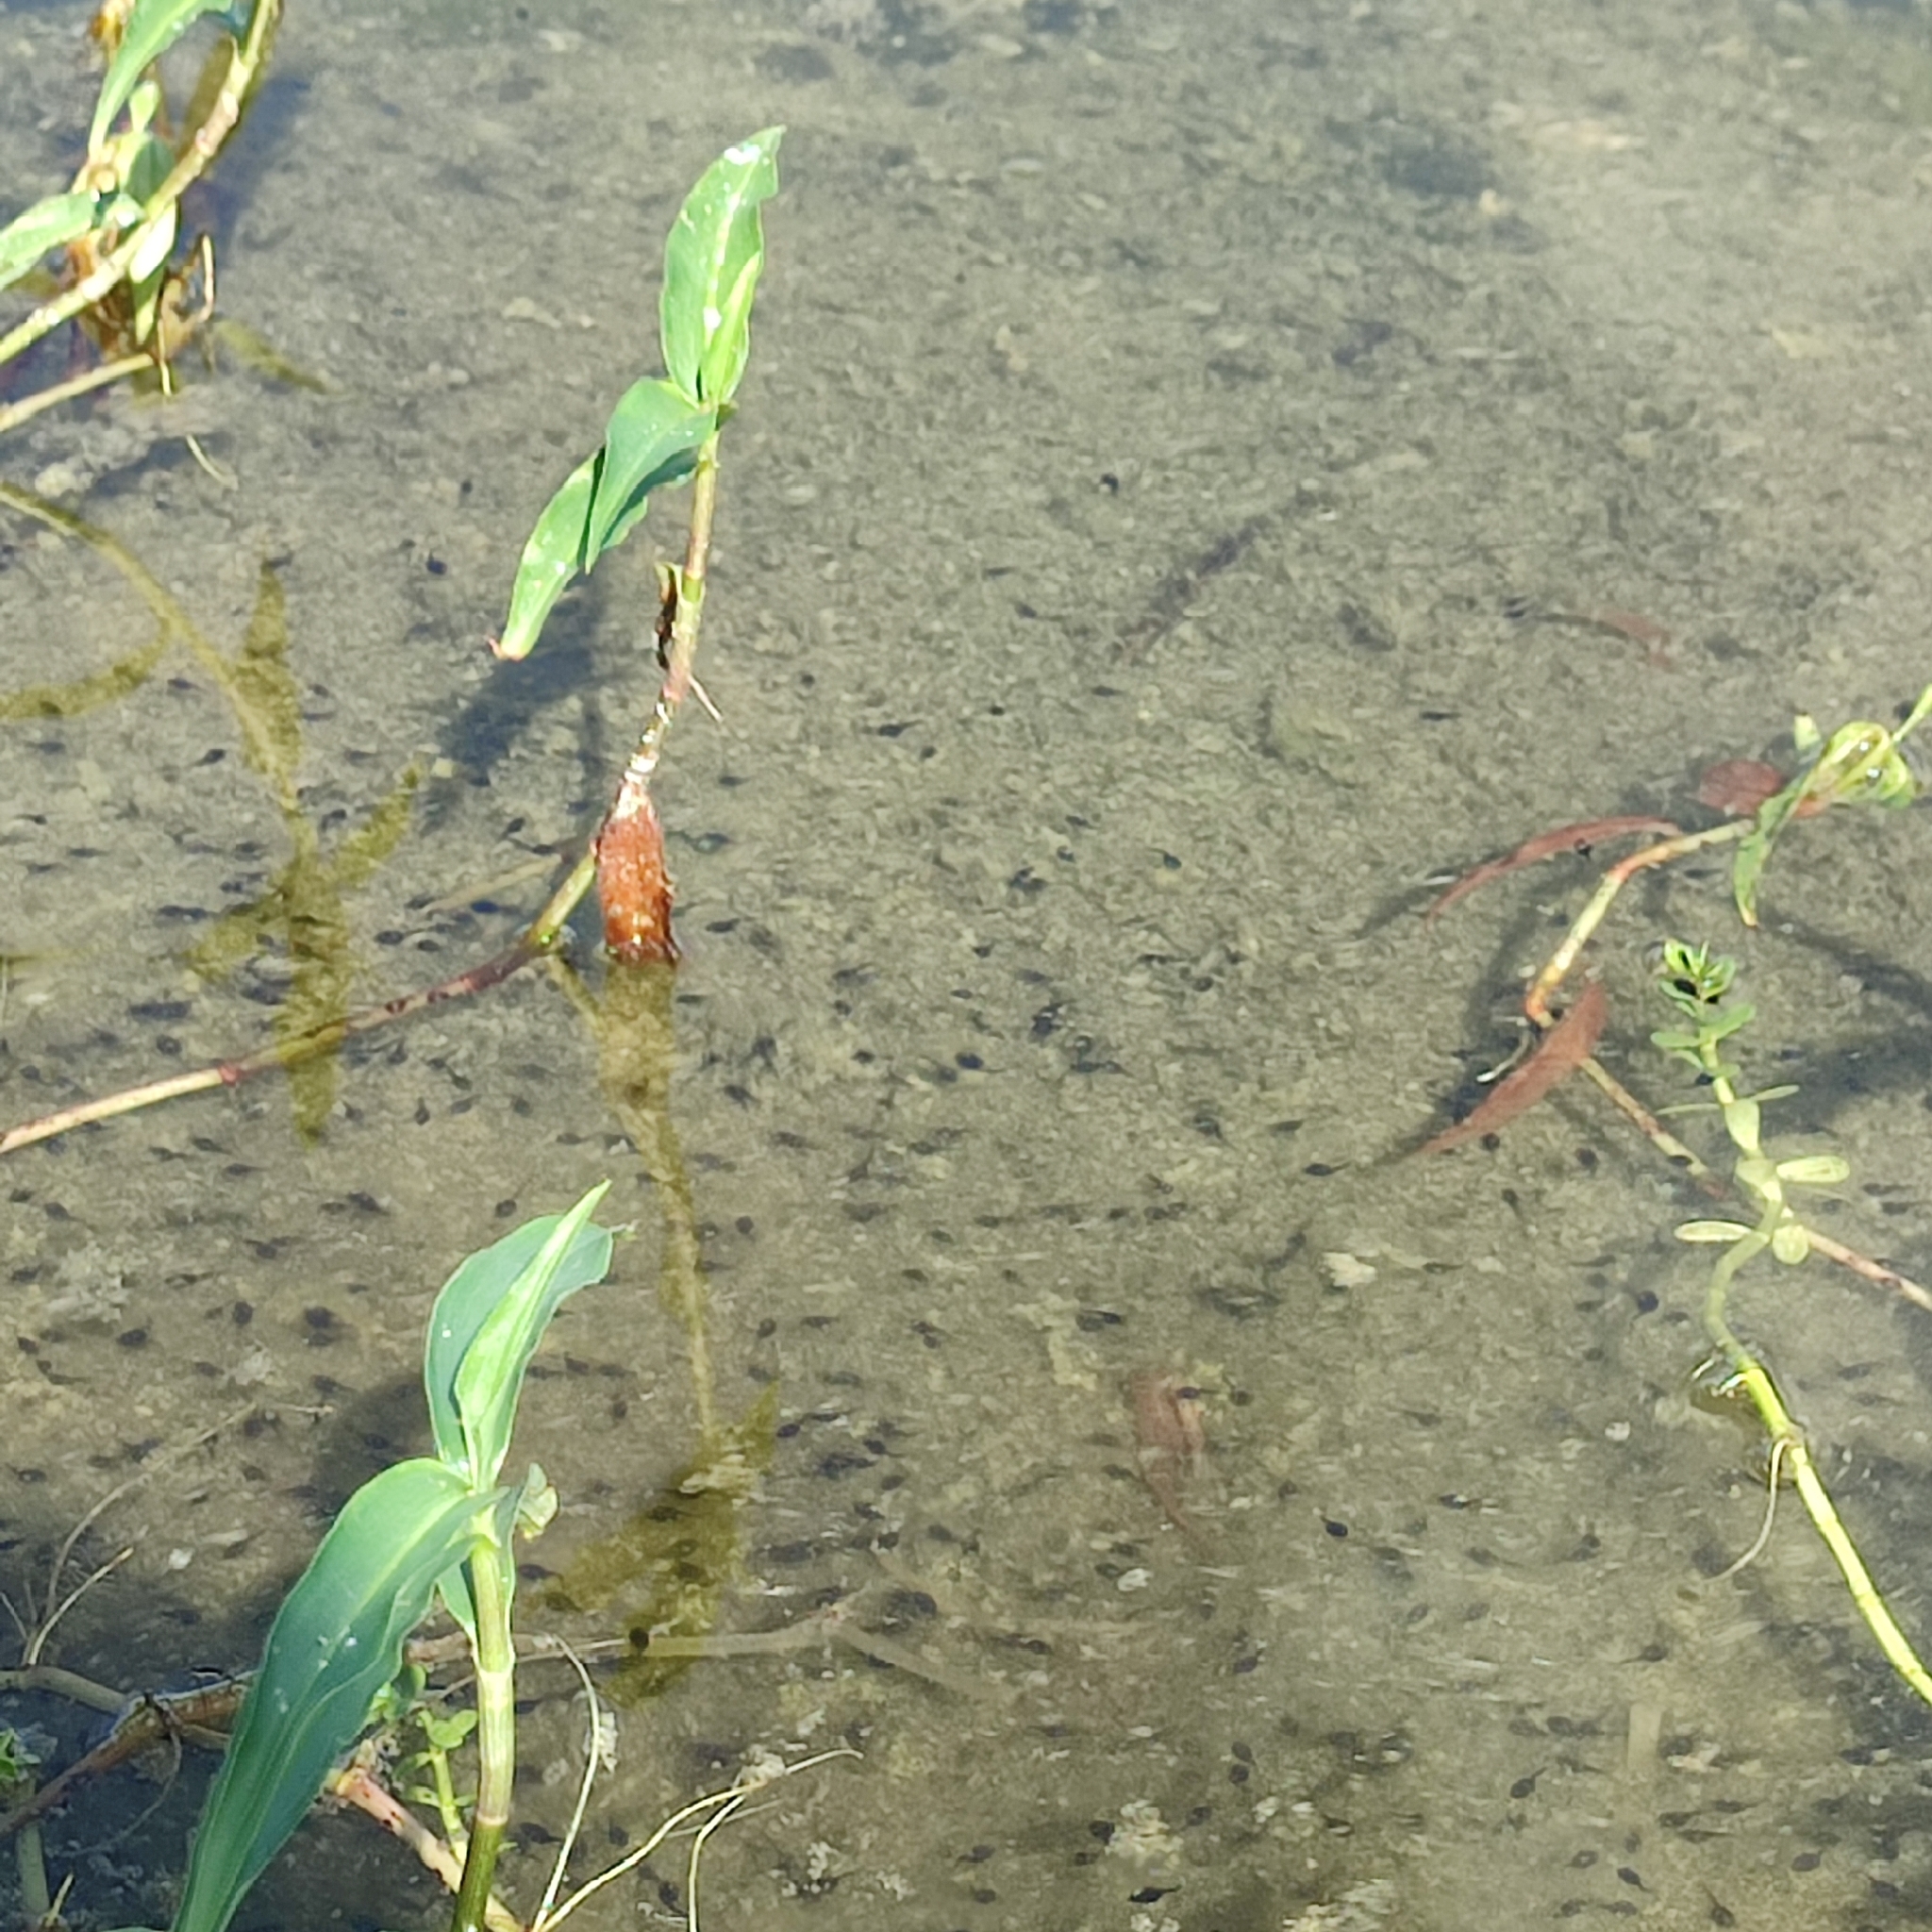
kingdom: Animalia
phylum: Chordata
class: Amphibia
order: Anura
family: Bufonidae
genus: Rhinella
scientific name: Rhinella marina
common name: Cane toad
